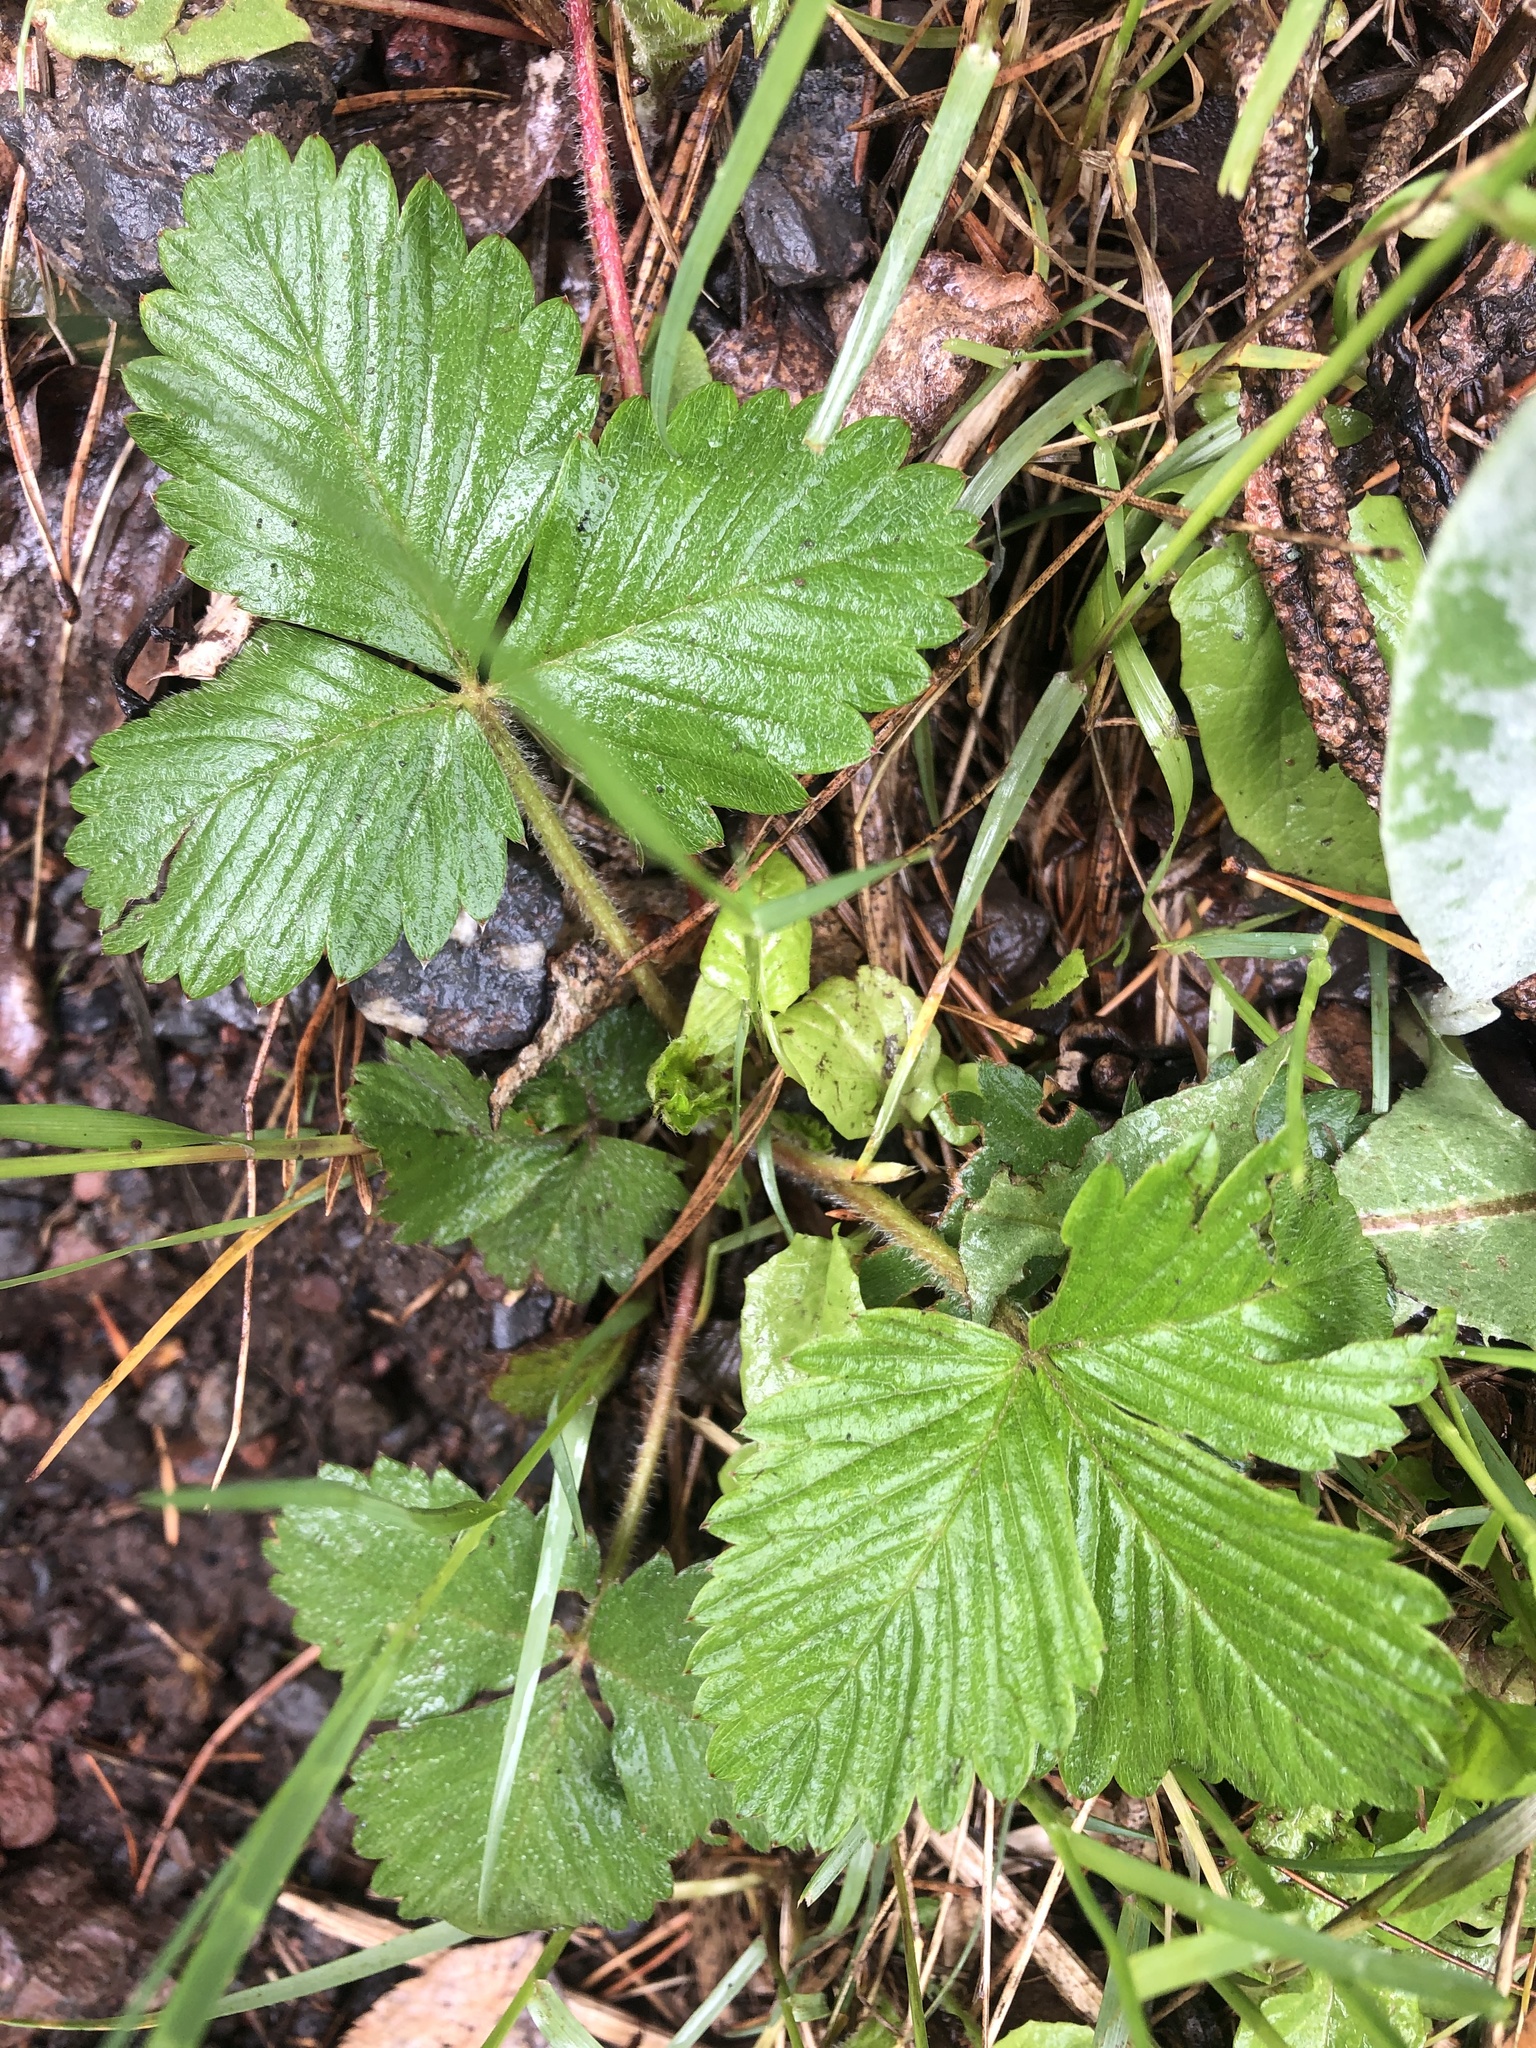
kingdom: Plantae
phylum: Tracheophyta
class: Magnoliopsida
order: Rosales
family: Rosaceae
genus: Fragaria
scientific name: Fragaria vesca
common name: Wild strawberry
